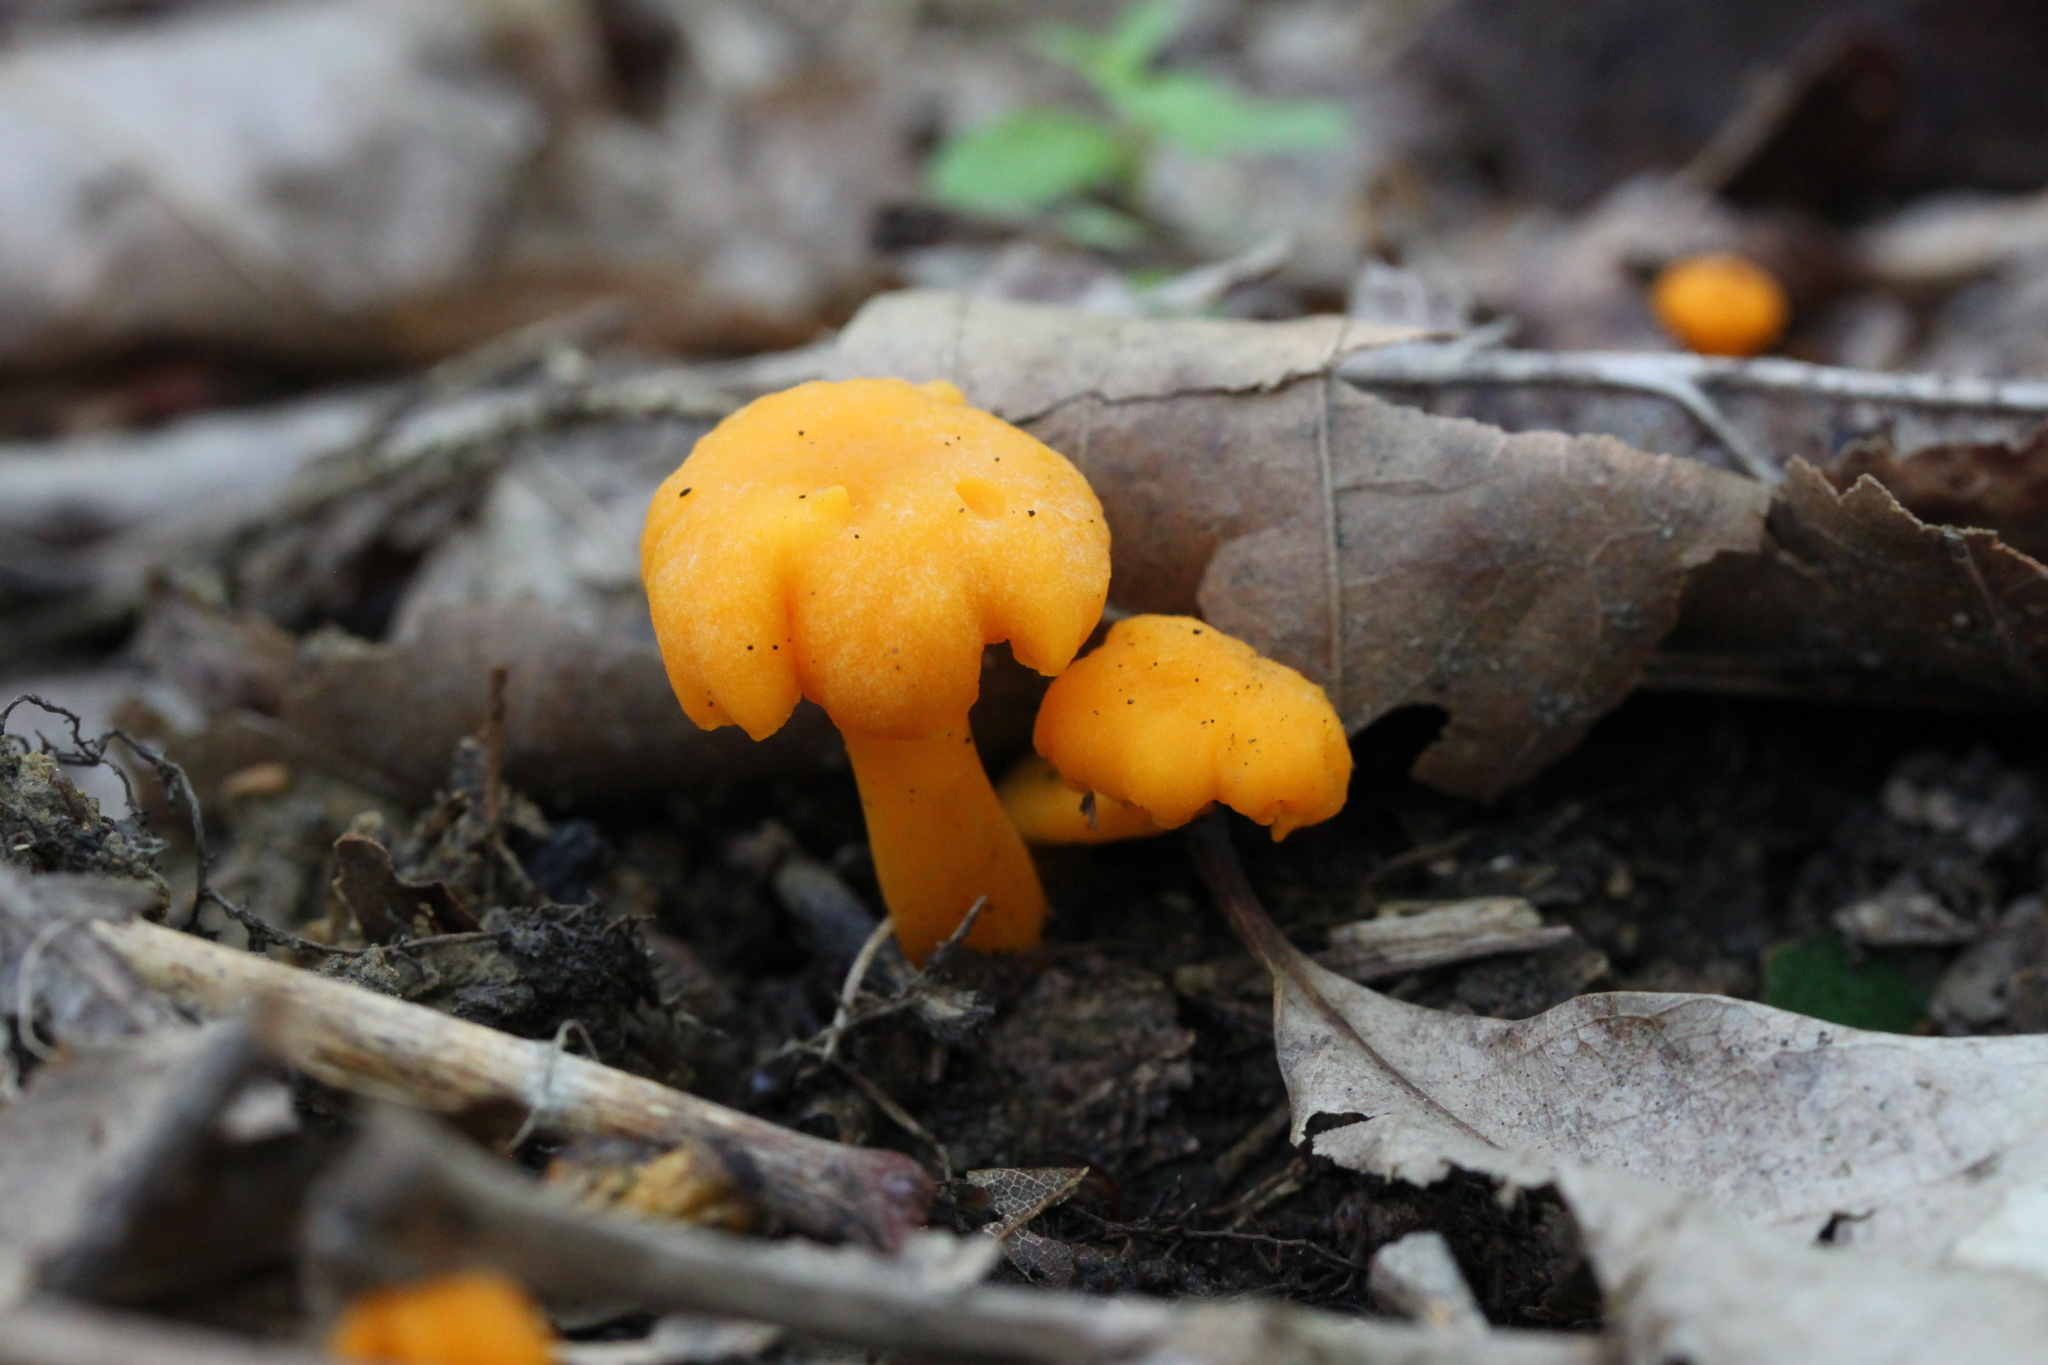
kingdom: Fungi
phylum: Basidiomycota
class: Agaricomycetes
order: Cantharellales
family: Hydnaceae
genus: Cantharellus
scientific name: Cantharellus minor
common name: Small chanterelle
